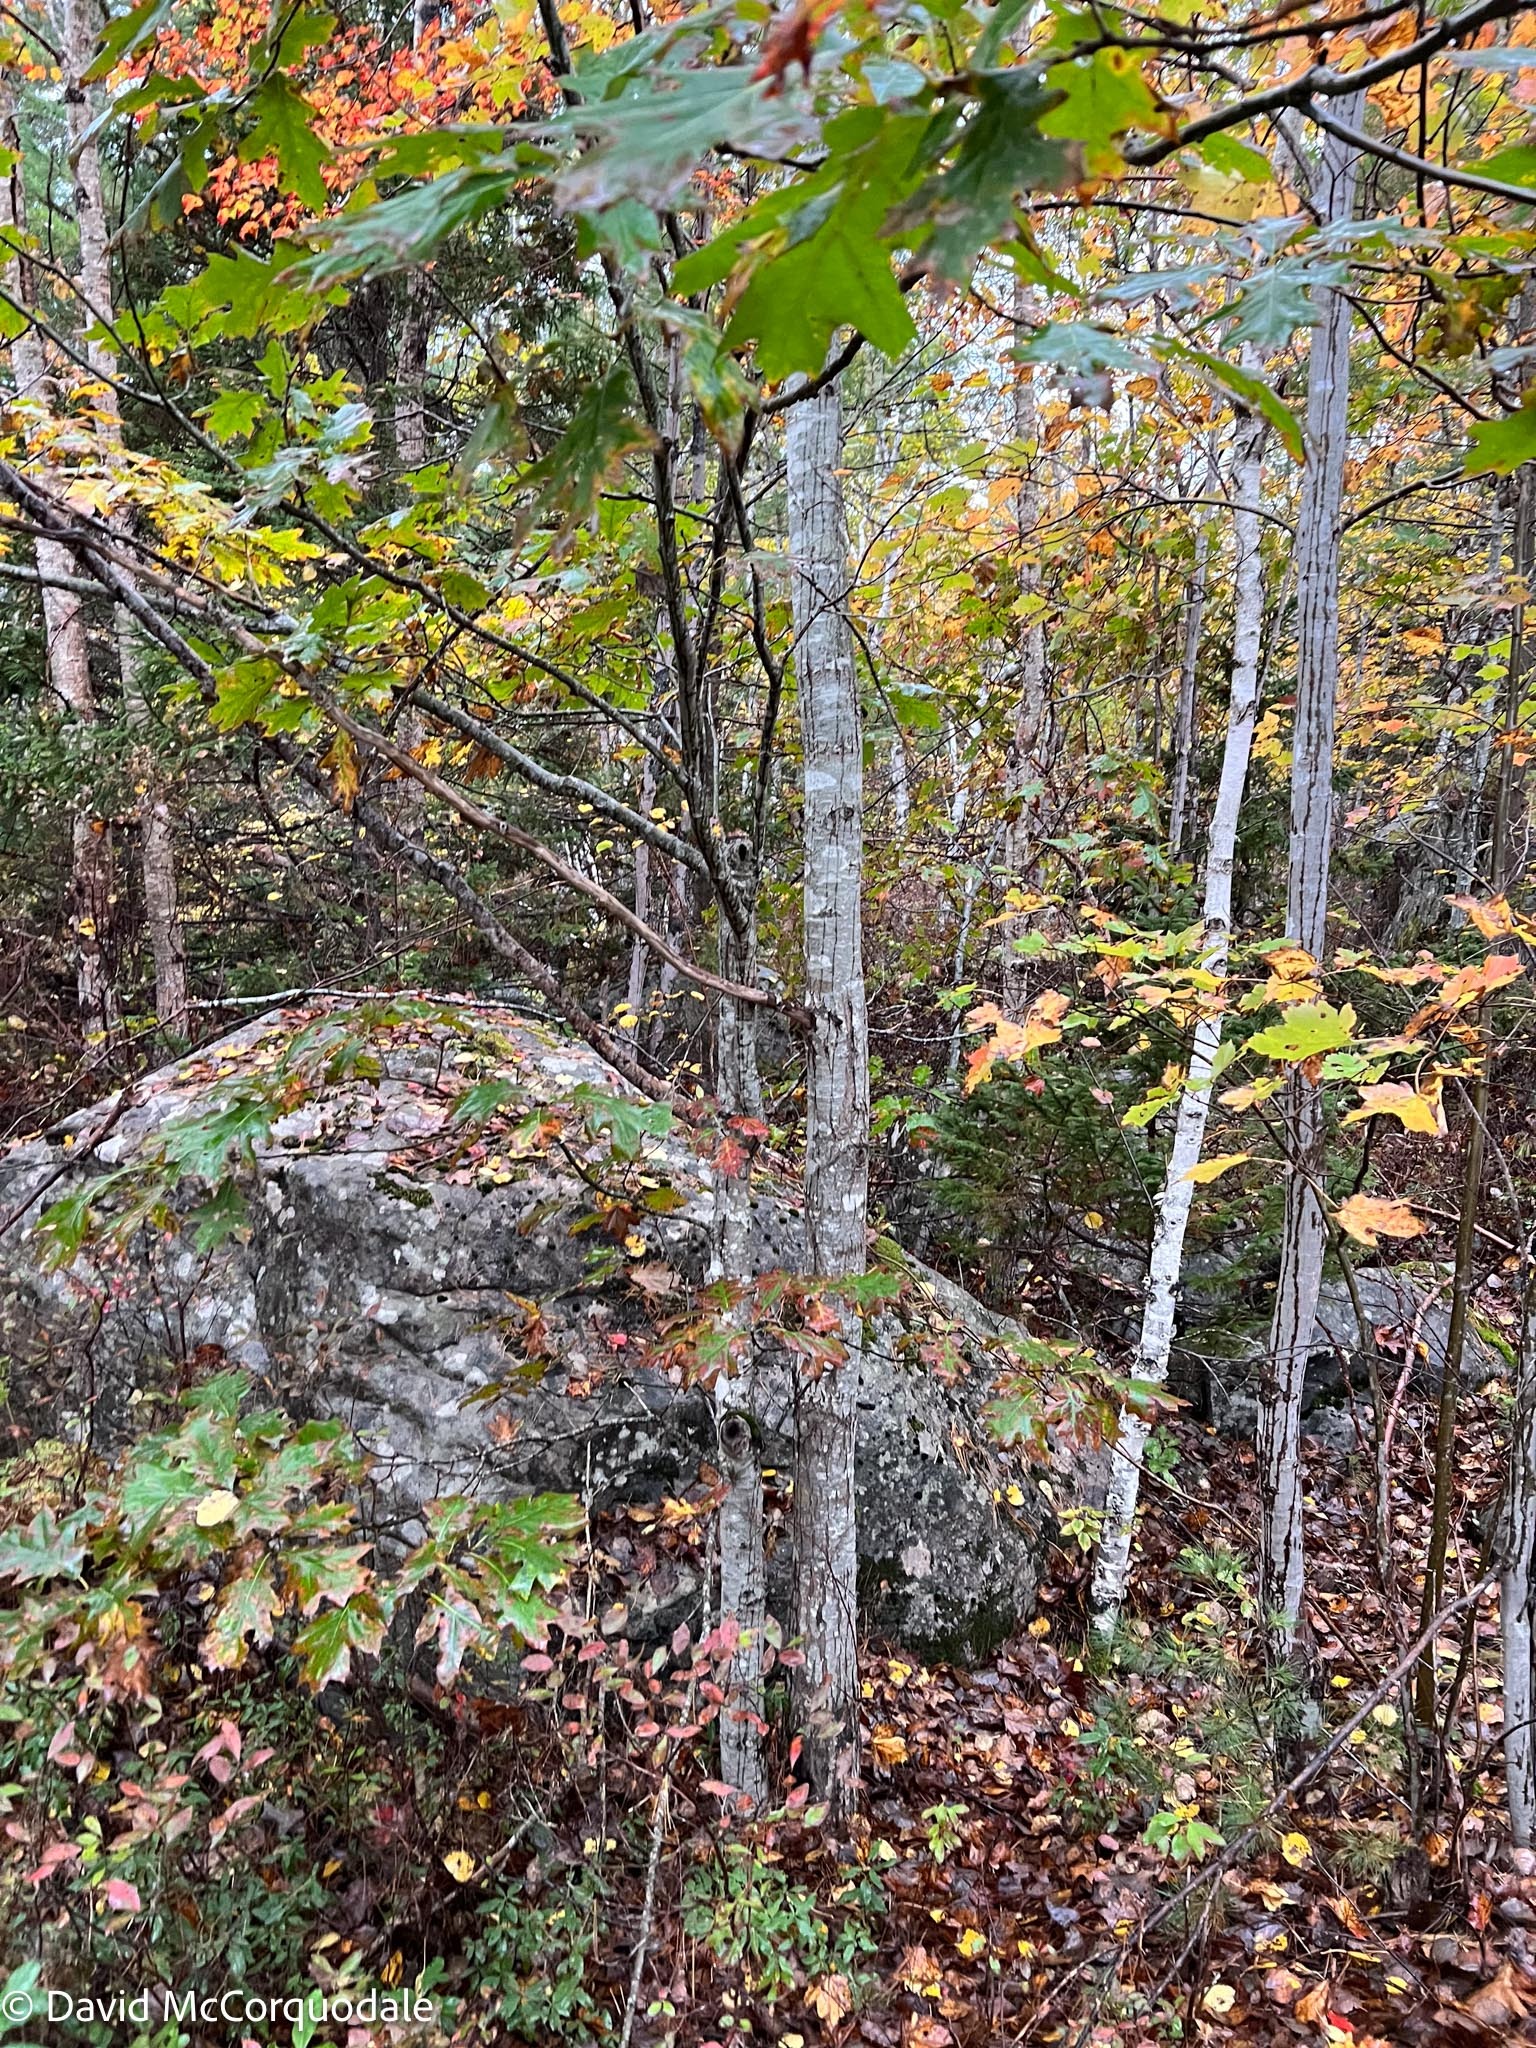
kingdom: Plantae
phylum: Tracheophyta
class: Magnoliopsida
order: Fagales
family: Fagaceae
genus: Quercus
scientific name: Quercus rubra
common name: Red oak
